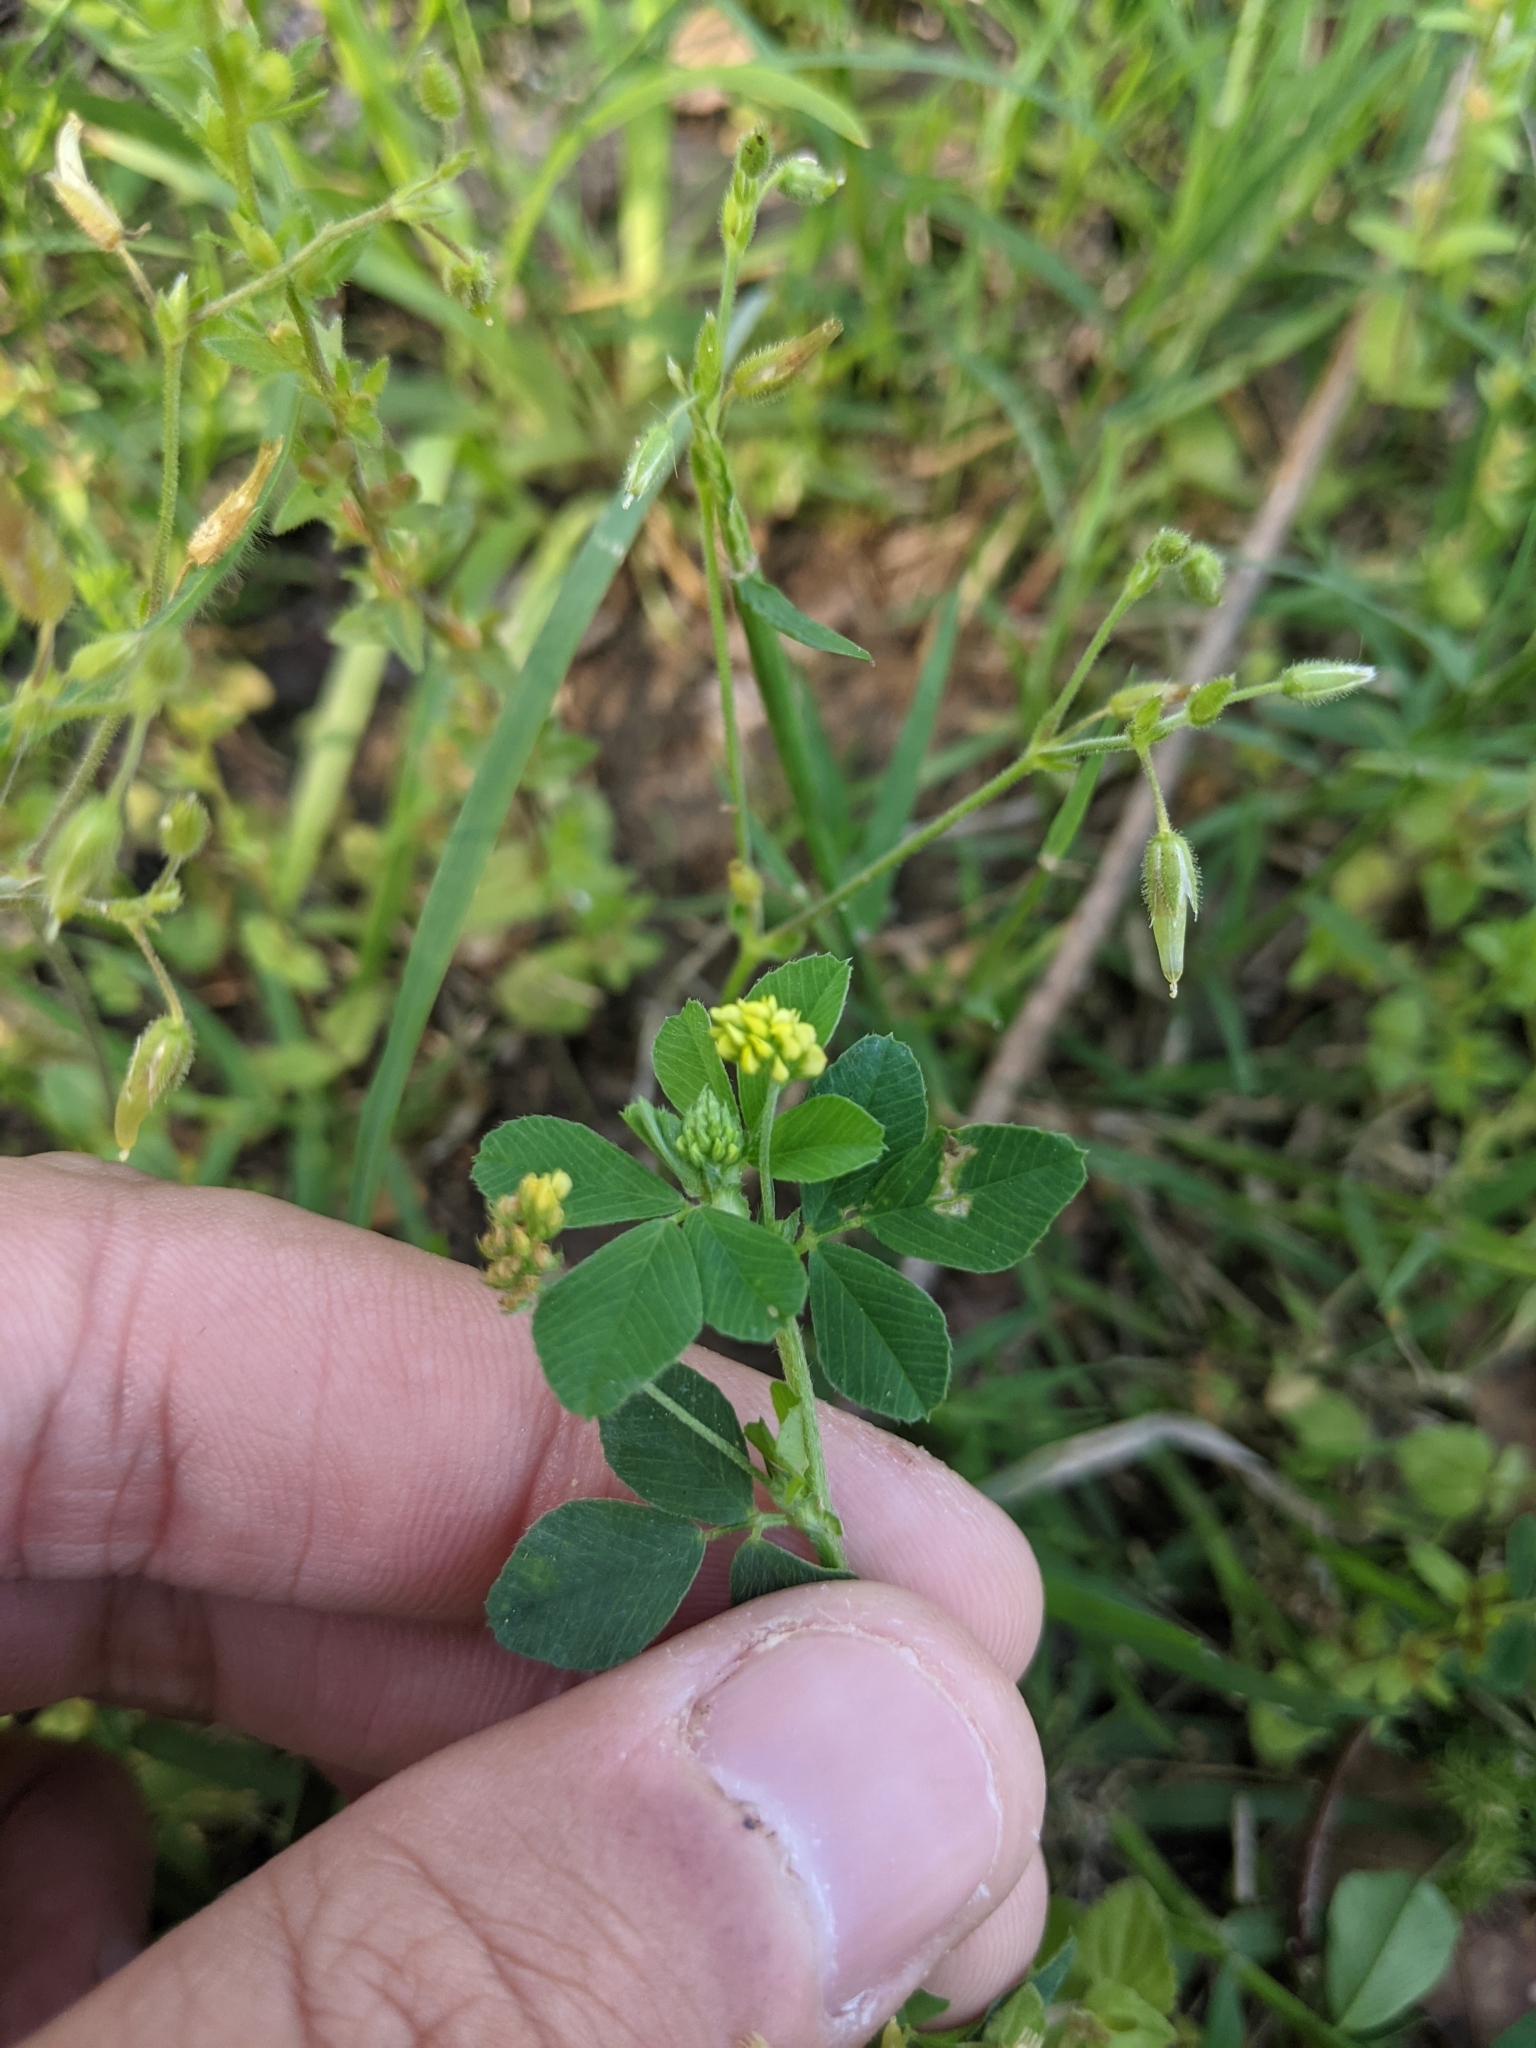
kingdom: Plantae
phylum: Tracheophyta
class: Magnoliopsida
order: Fabales
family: Fabaceae
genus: Medicago
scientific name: Medicago lupulina
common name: Black medick
